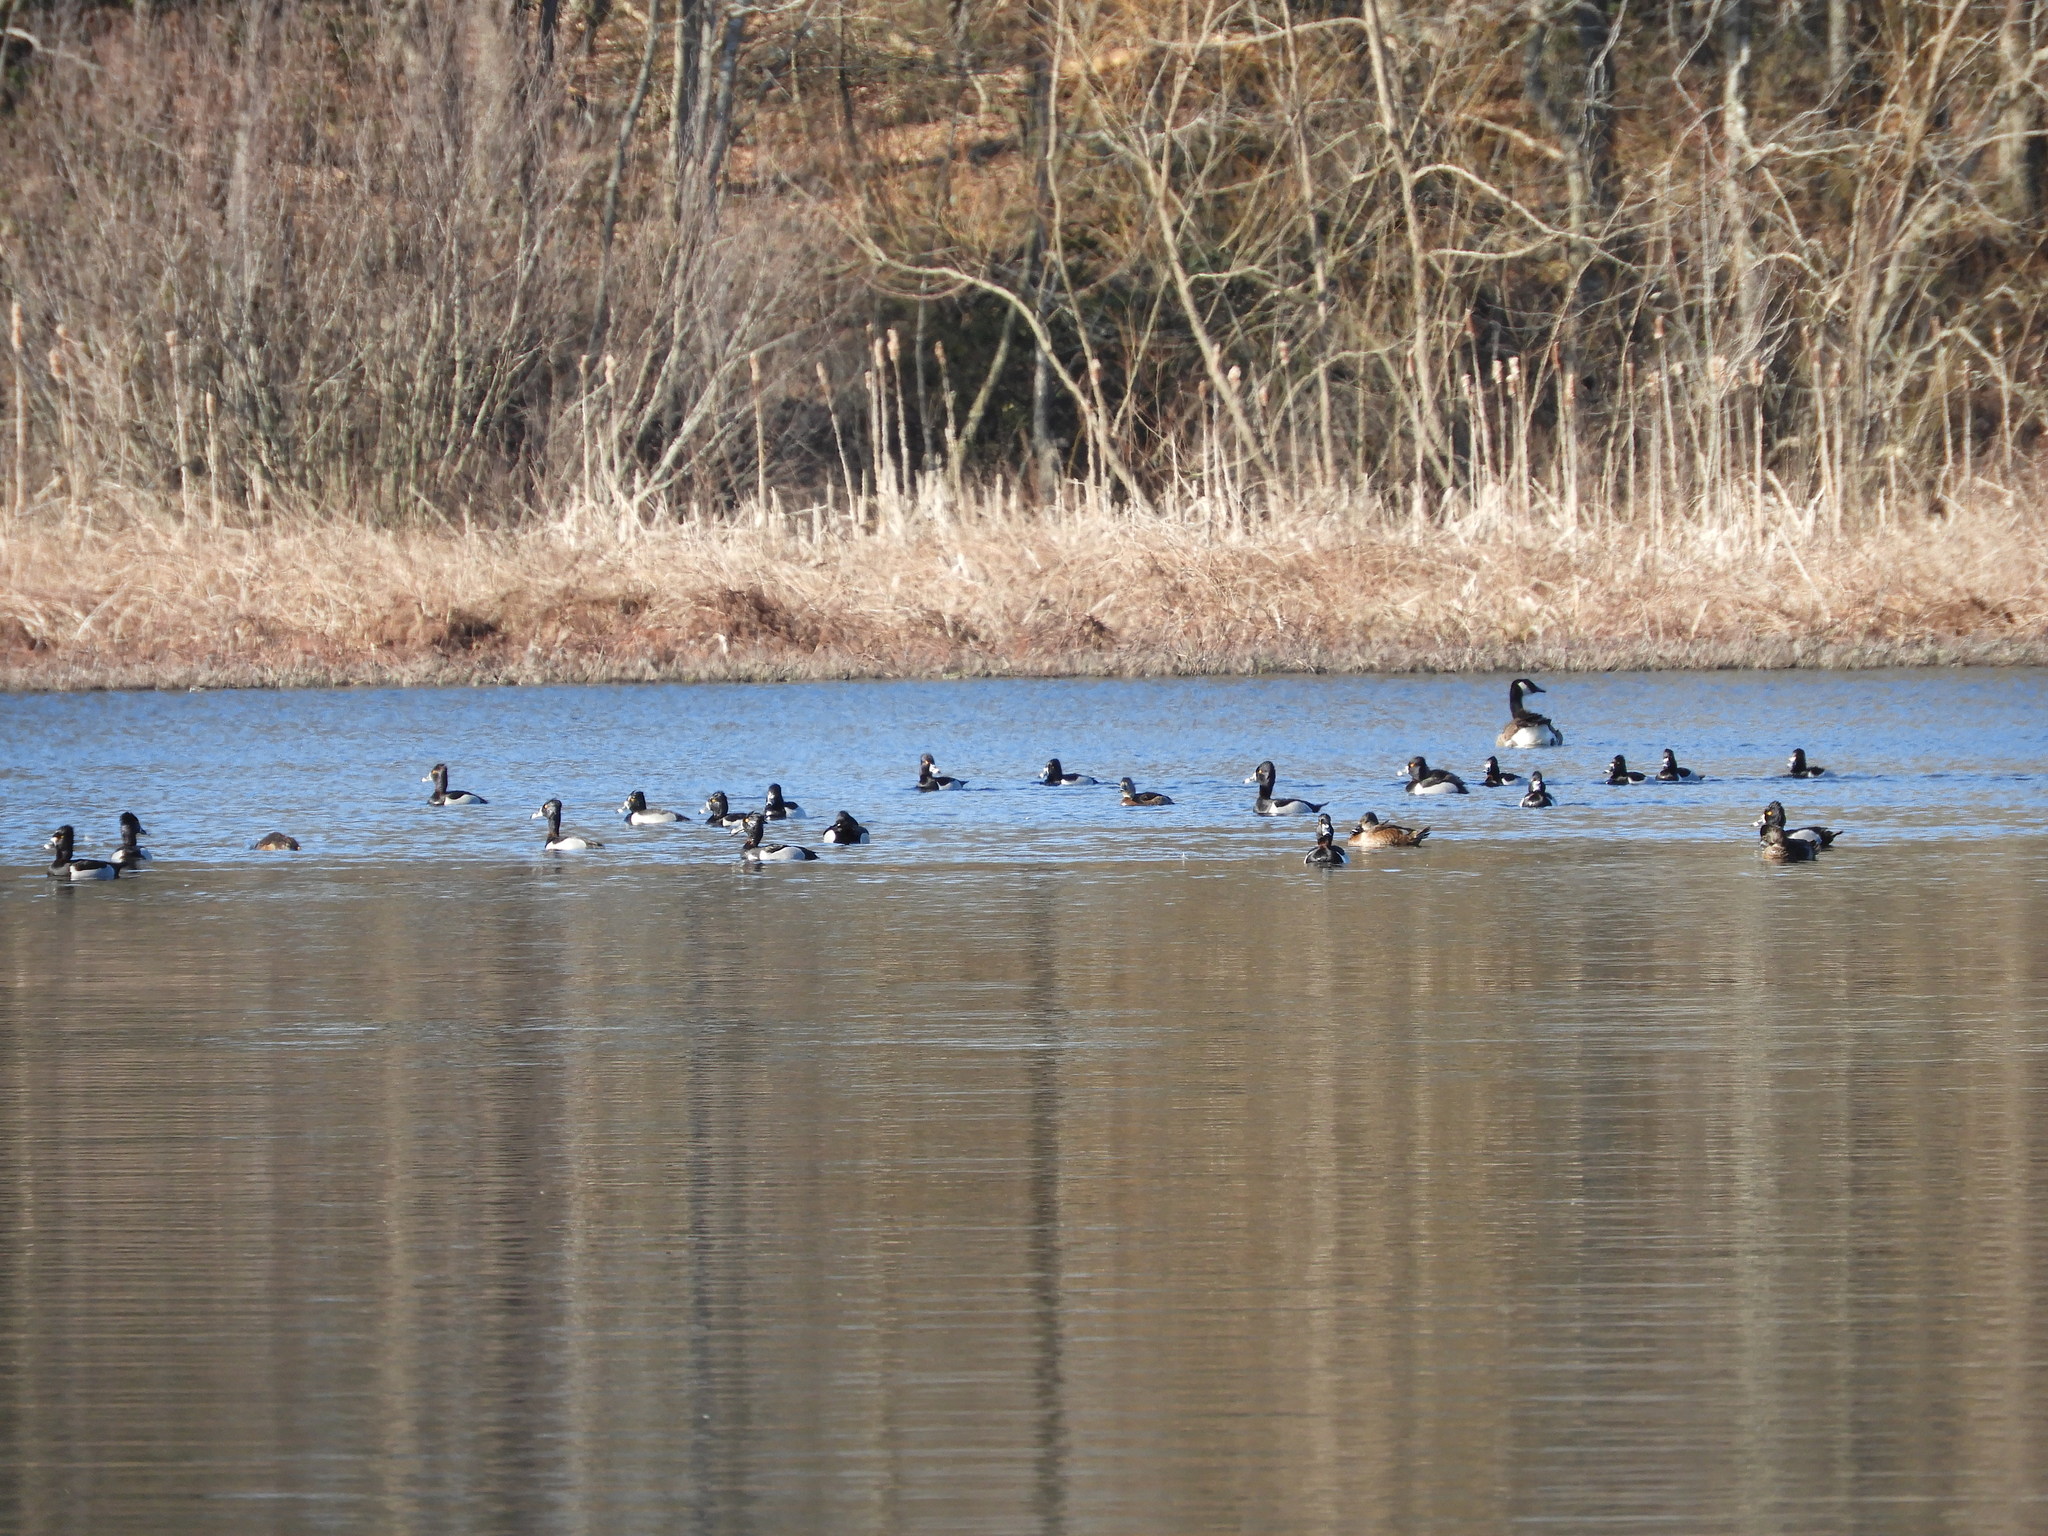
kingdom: Animalia
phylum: Chordata
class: Aves
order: Anseriformes
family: Anatidae
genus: Aythya
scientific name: Aythya collaris
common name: Ring-necked duck
